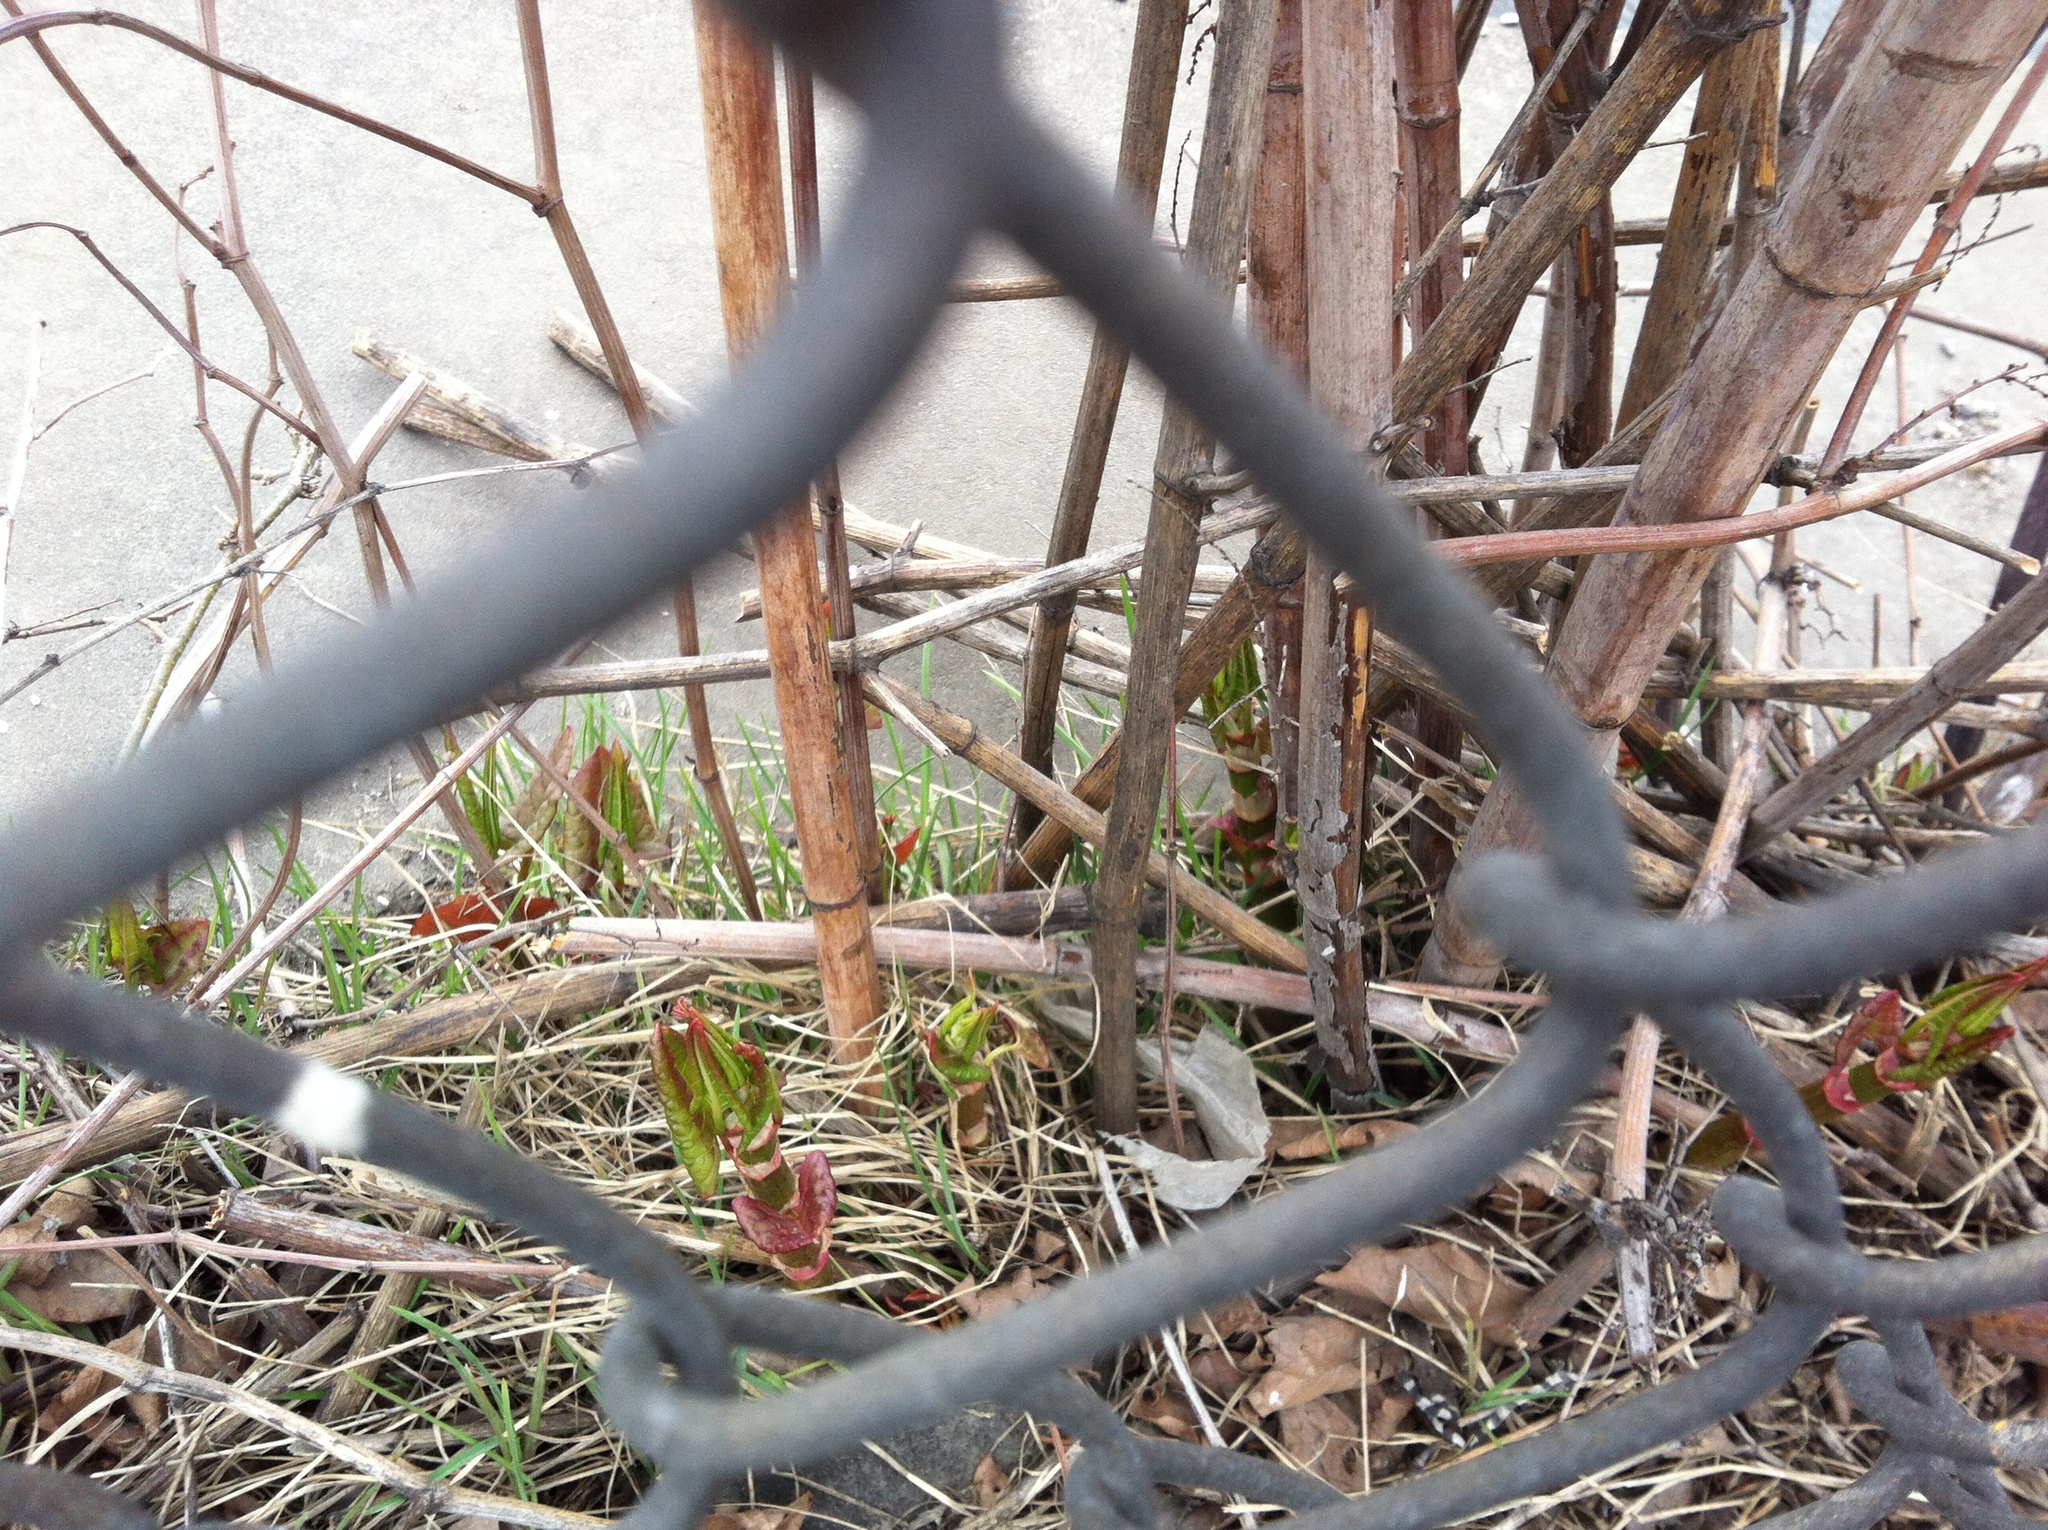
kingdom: Plantae
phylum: Tracheophyta
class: Magnoliopsida
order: Caryophyllales
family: Polygonaceae
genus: Reynoutria
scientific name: Reynoutria japonica
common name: Japanese knotweed
